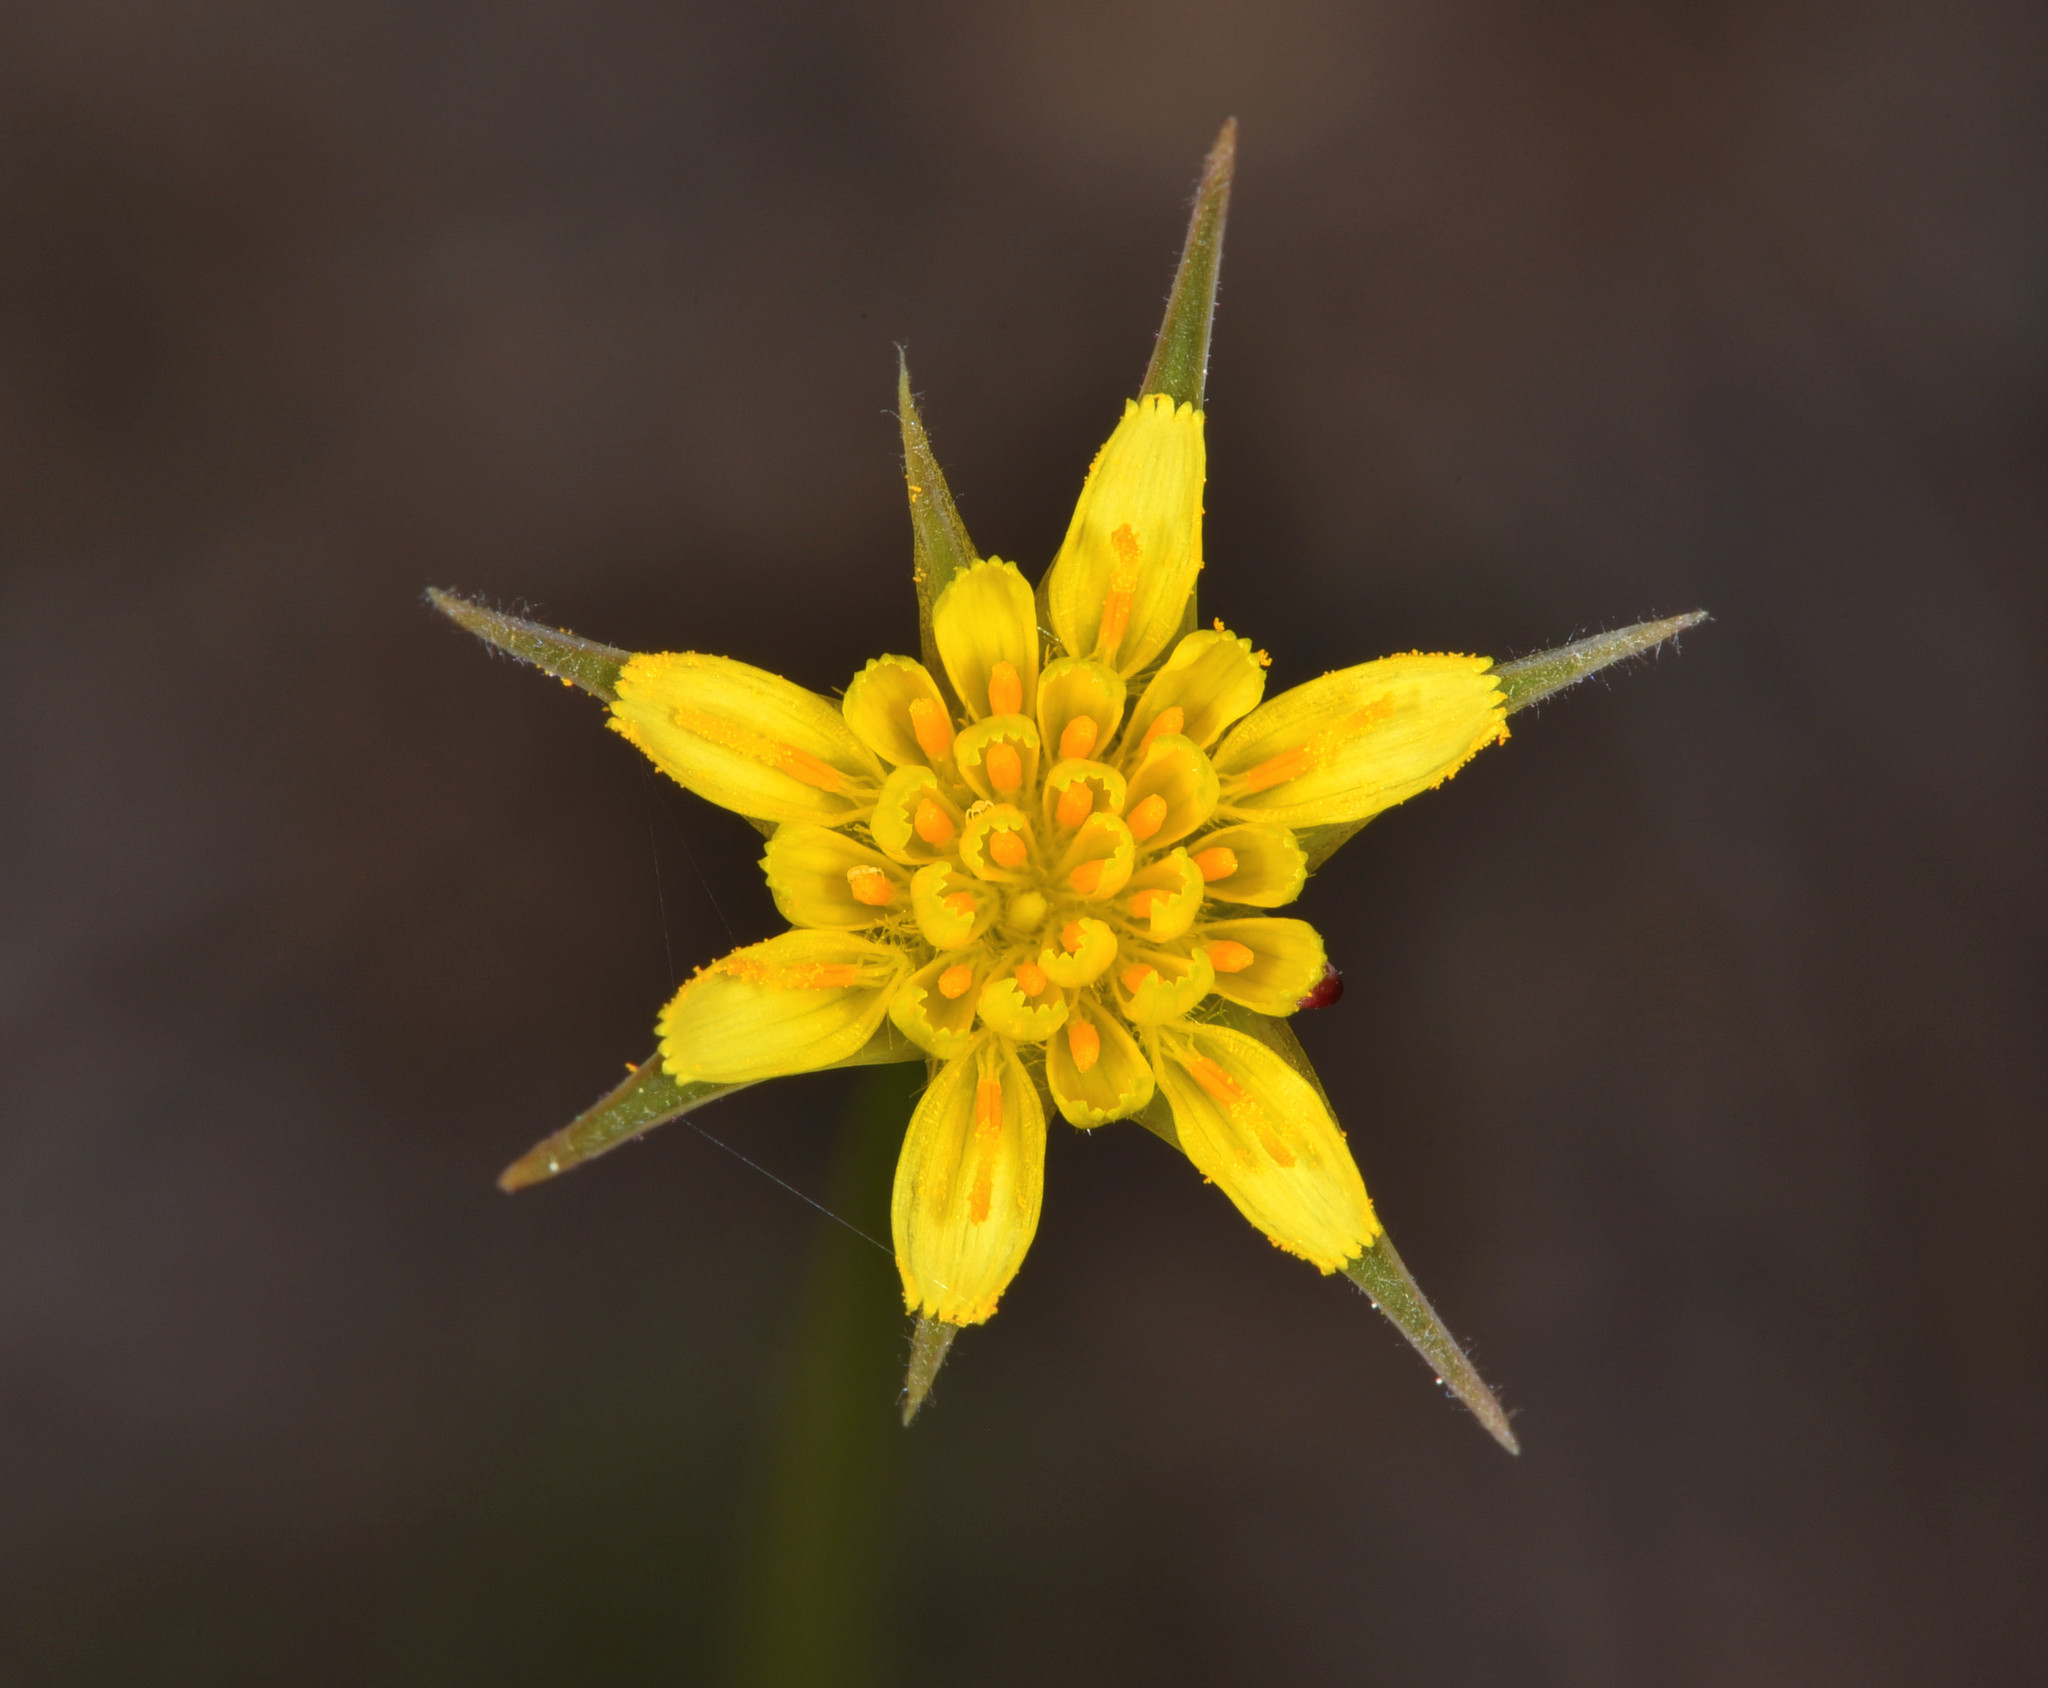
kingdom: Plantae
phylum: Tracheophyta
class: Magnoliopsida
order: Asterales
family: Asteraceae
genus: Microseris
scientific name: Microseris lindleyi
